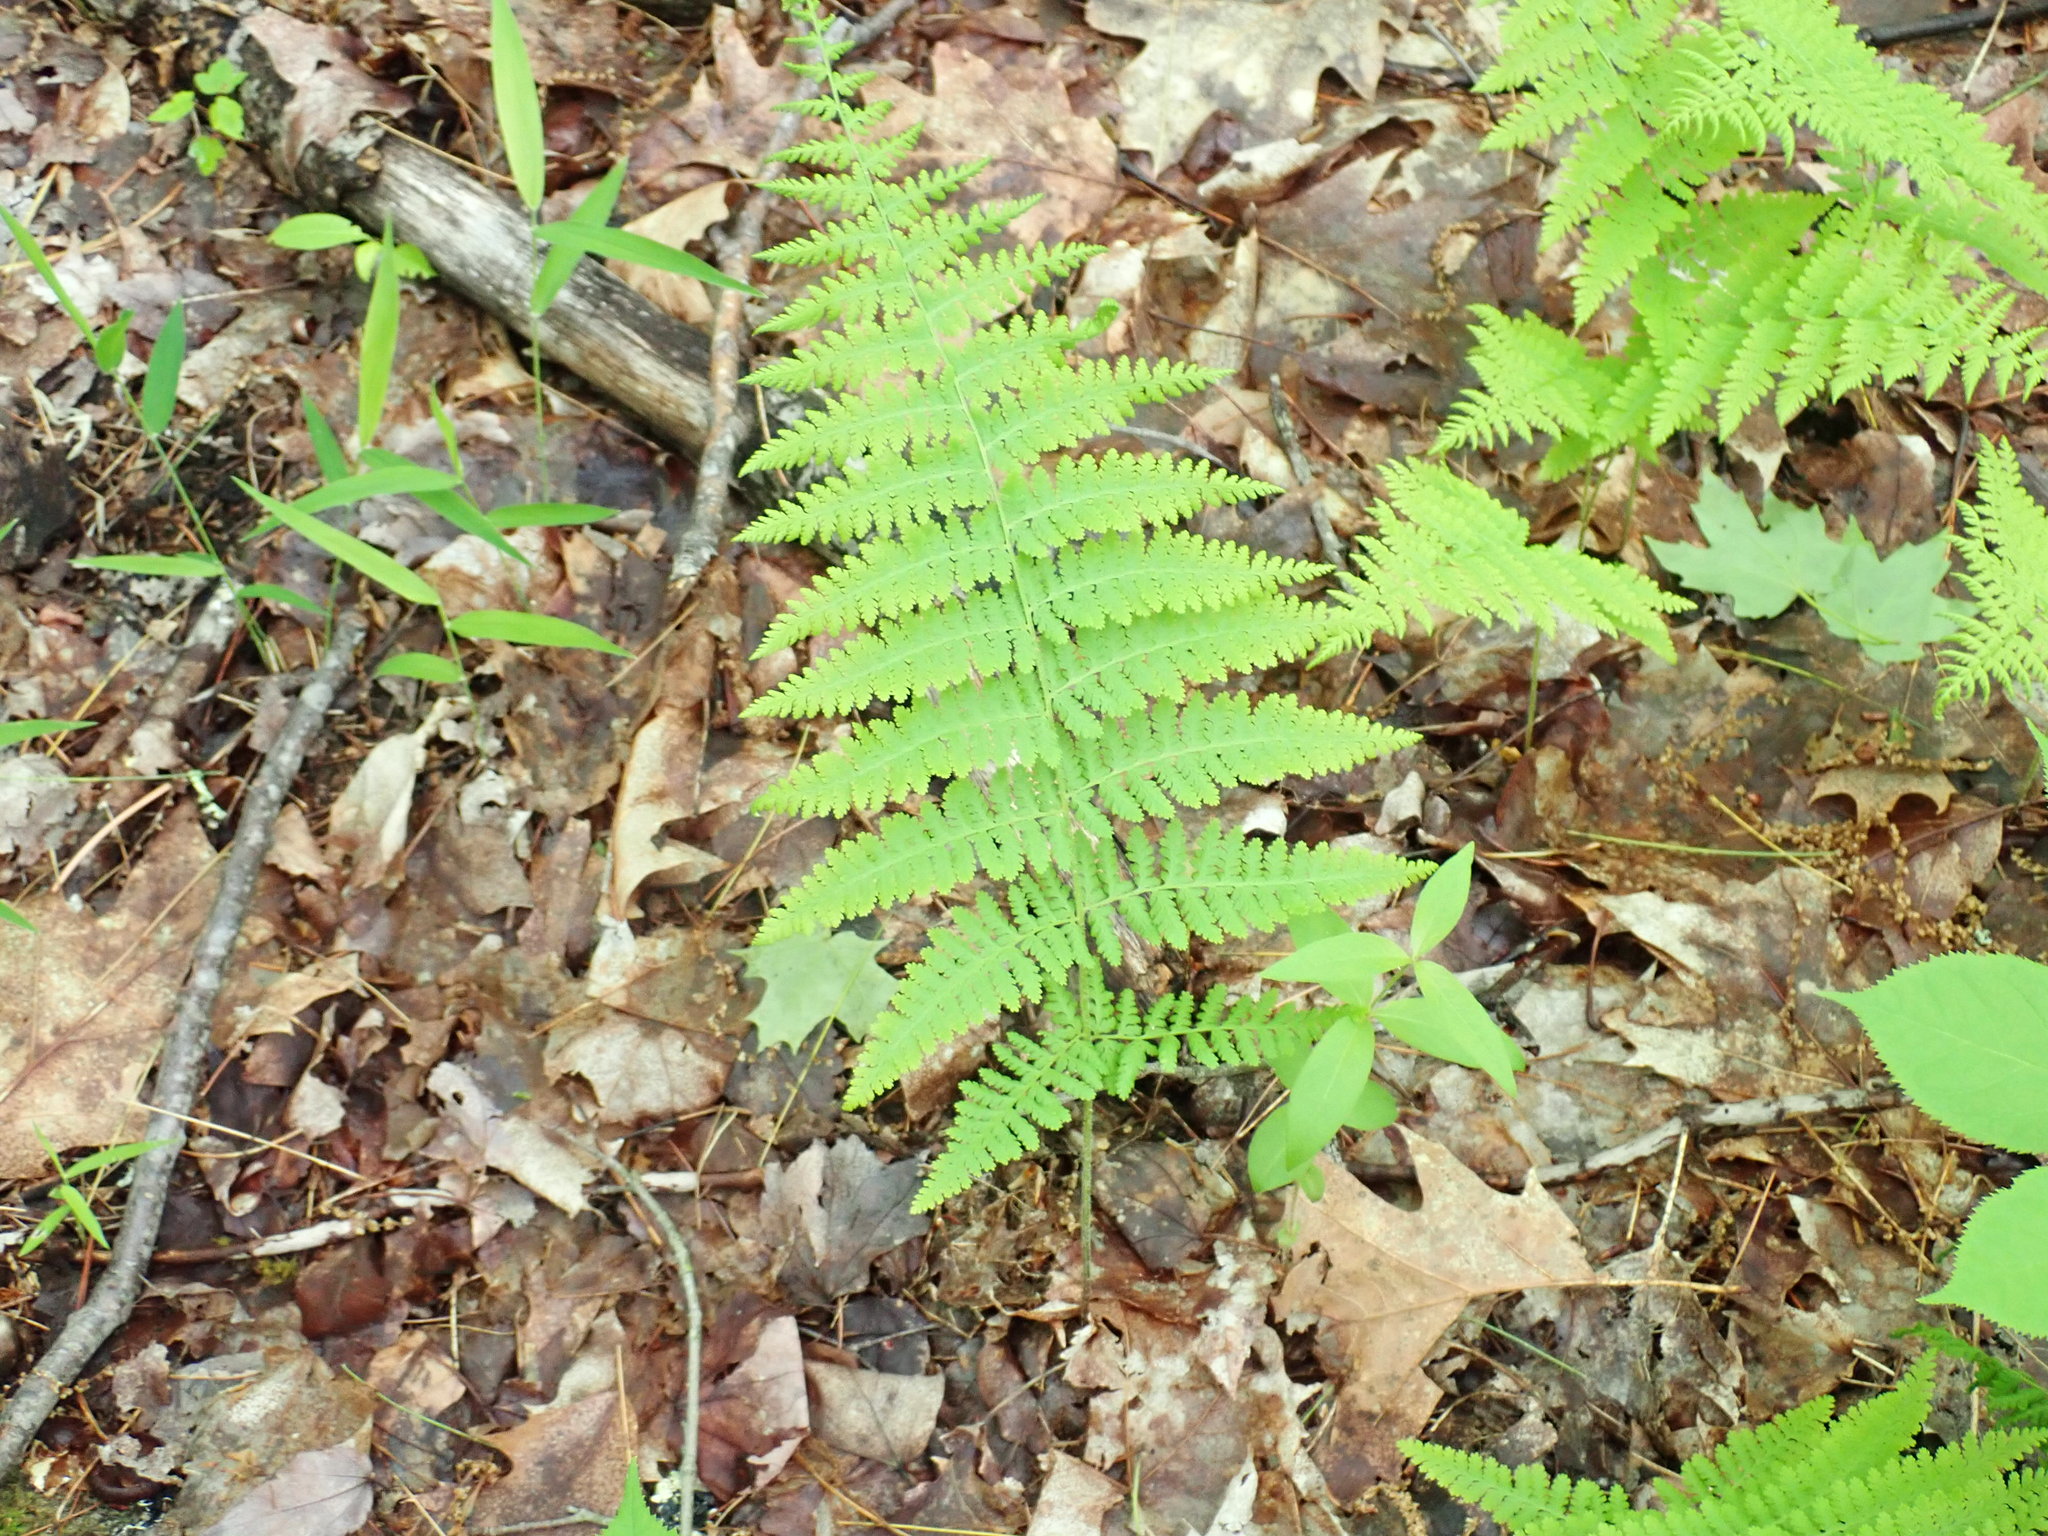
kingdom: Plantae
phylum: Tracheophyta
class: Polypodiopsida
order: Polypodiales
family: Dennstaedtiaceae
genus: Sitobolium
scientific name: Sitobolium punctilobum
